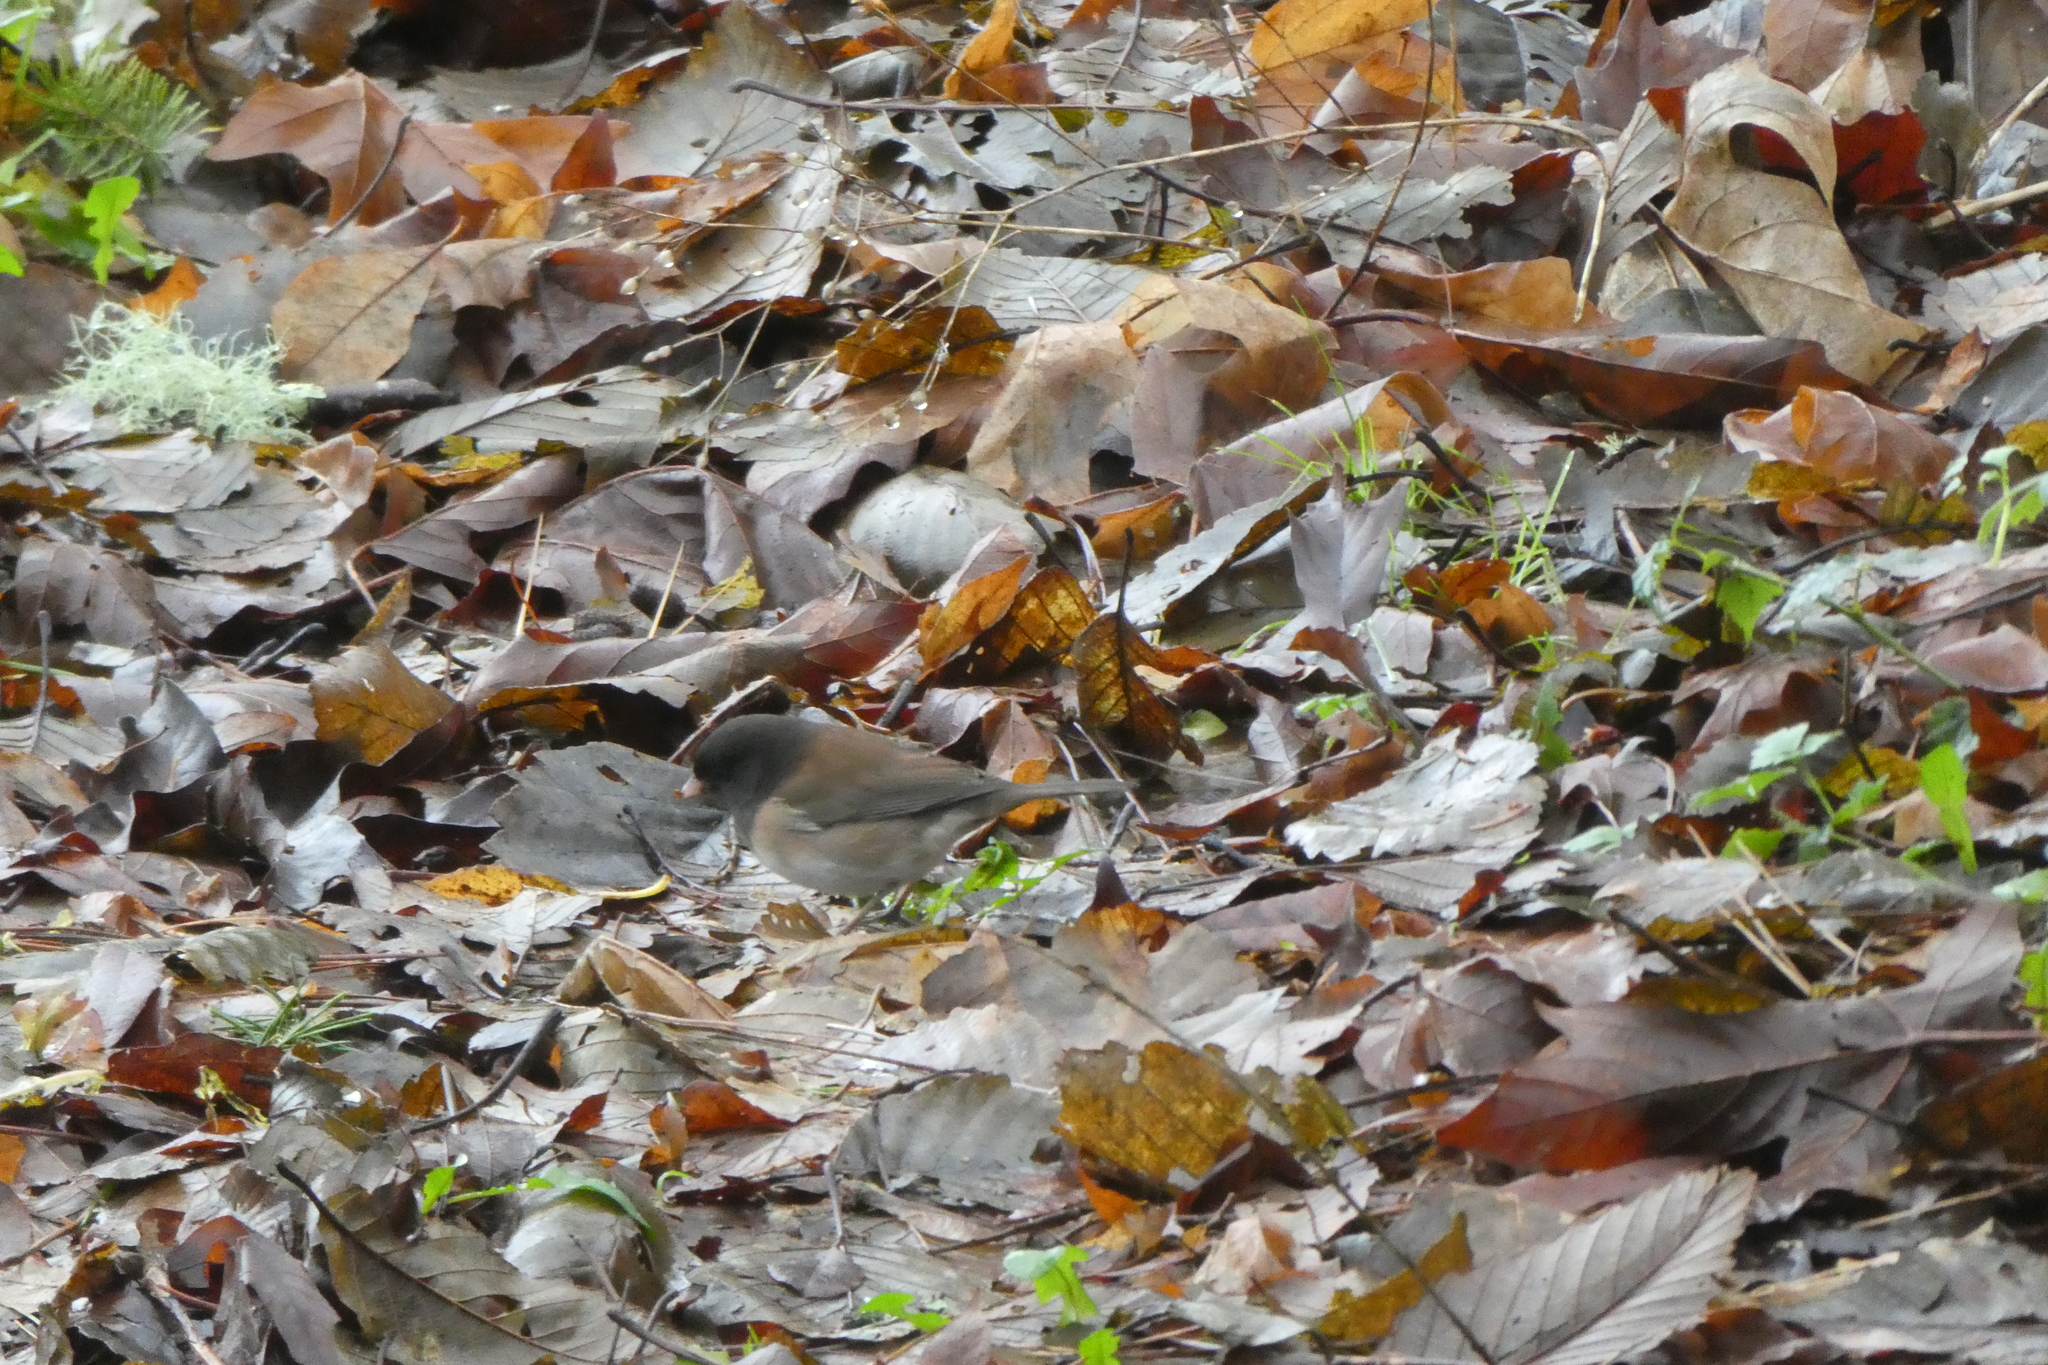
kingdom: Animalia
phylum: Chordata
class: Aves
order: Passeriformes
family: Passerellidae
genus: Junco
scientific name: Junco hyemalis
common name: Dark-eyed junco
